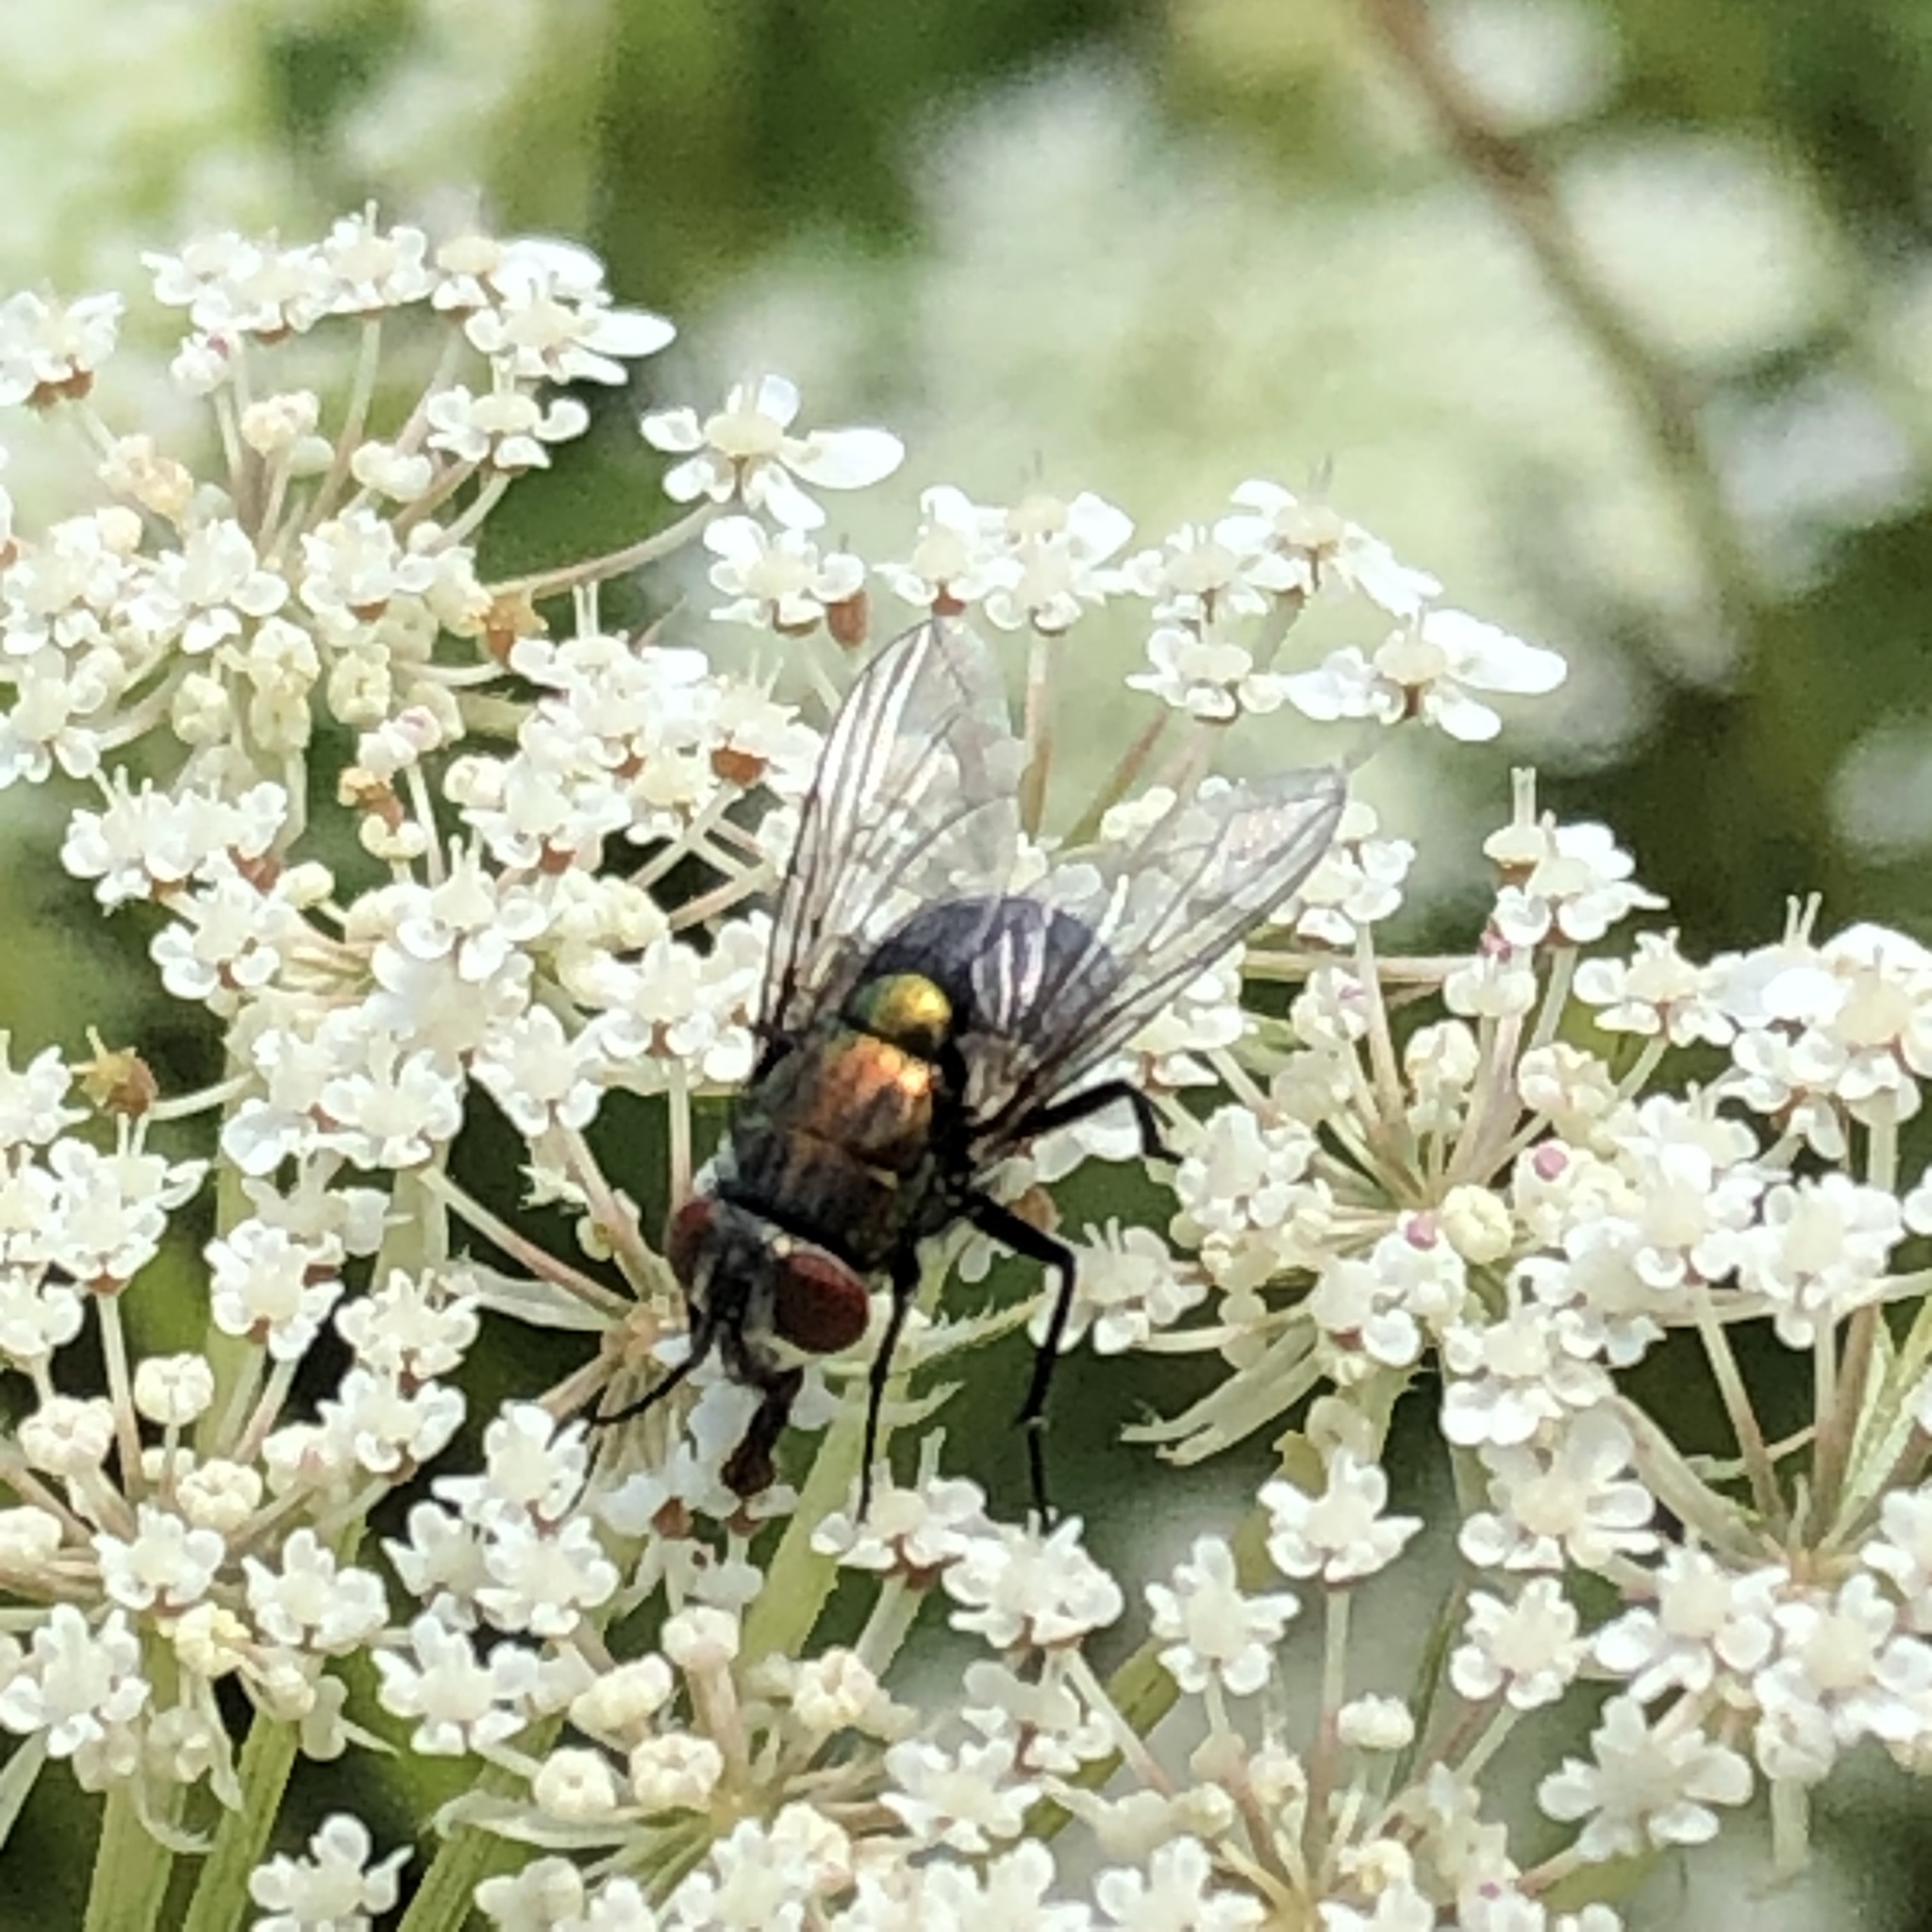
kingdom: Animalia
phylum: Arthropoda
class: Insecta
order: Diptera
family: Calliphoridae
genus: Lucilia
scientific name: Lucilia sericata
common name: Blow fly
